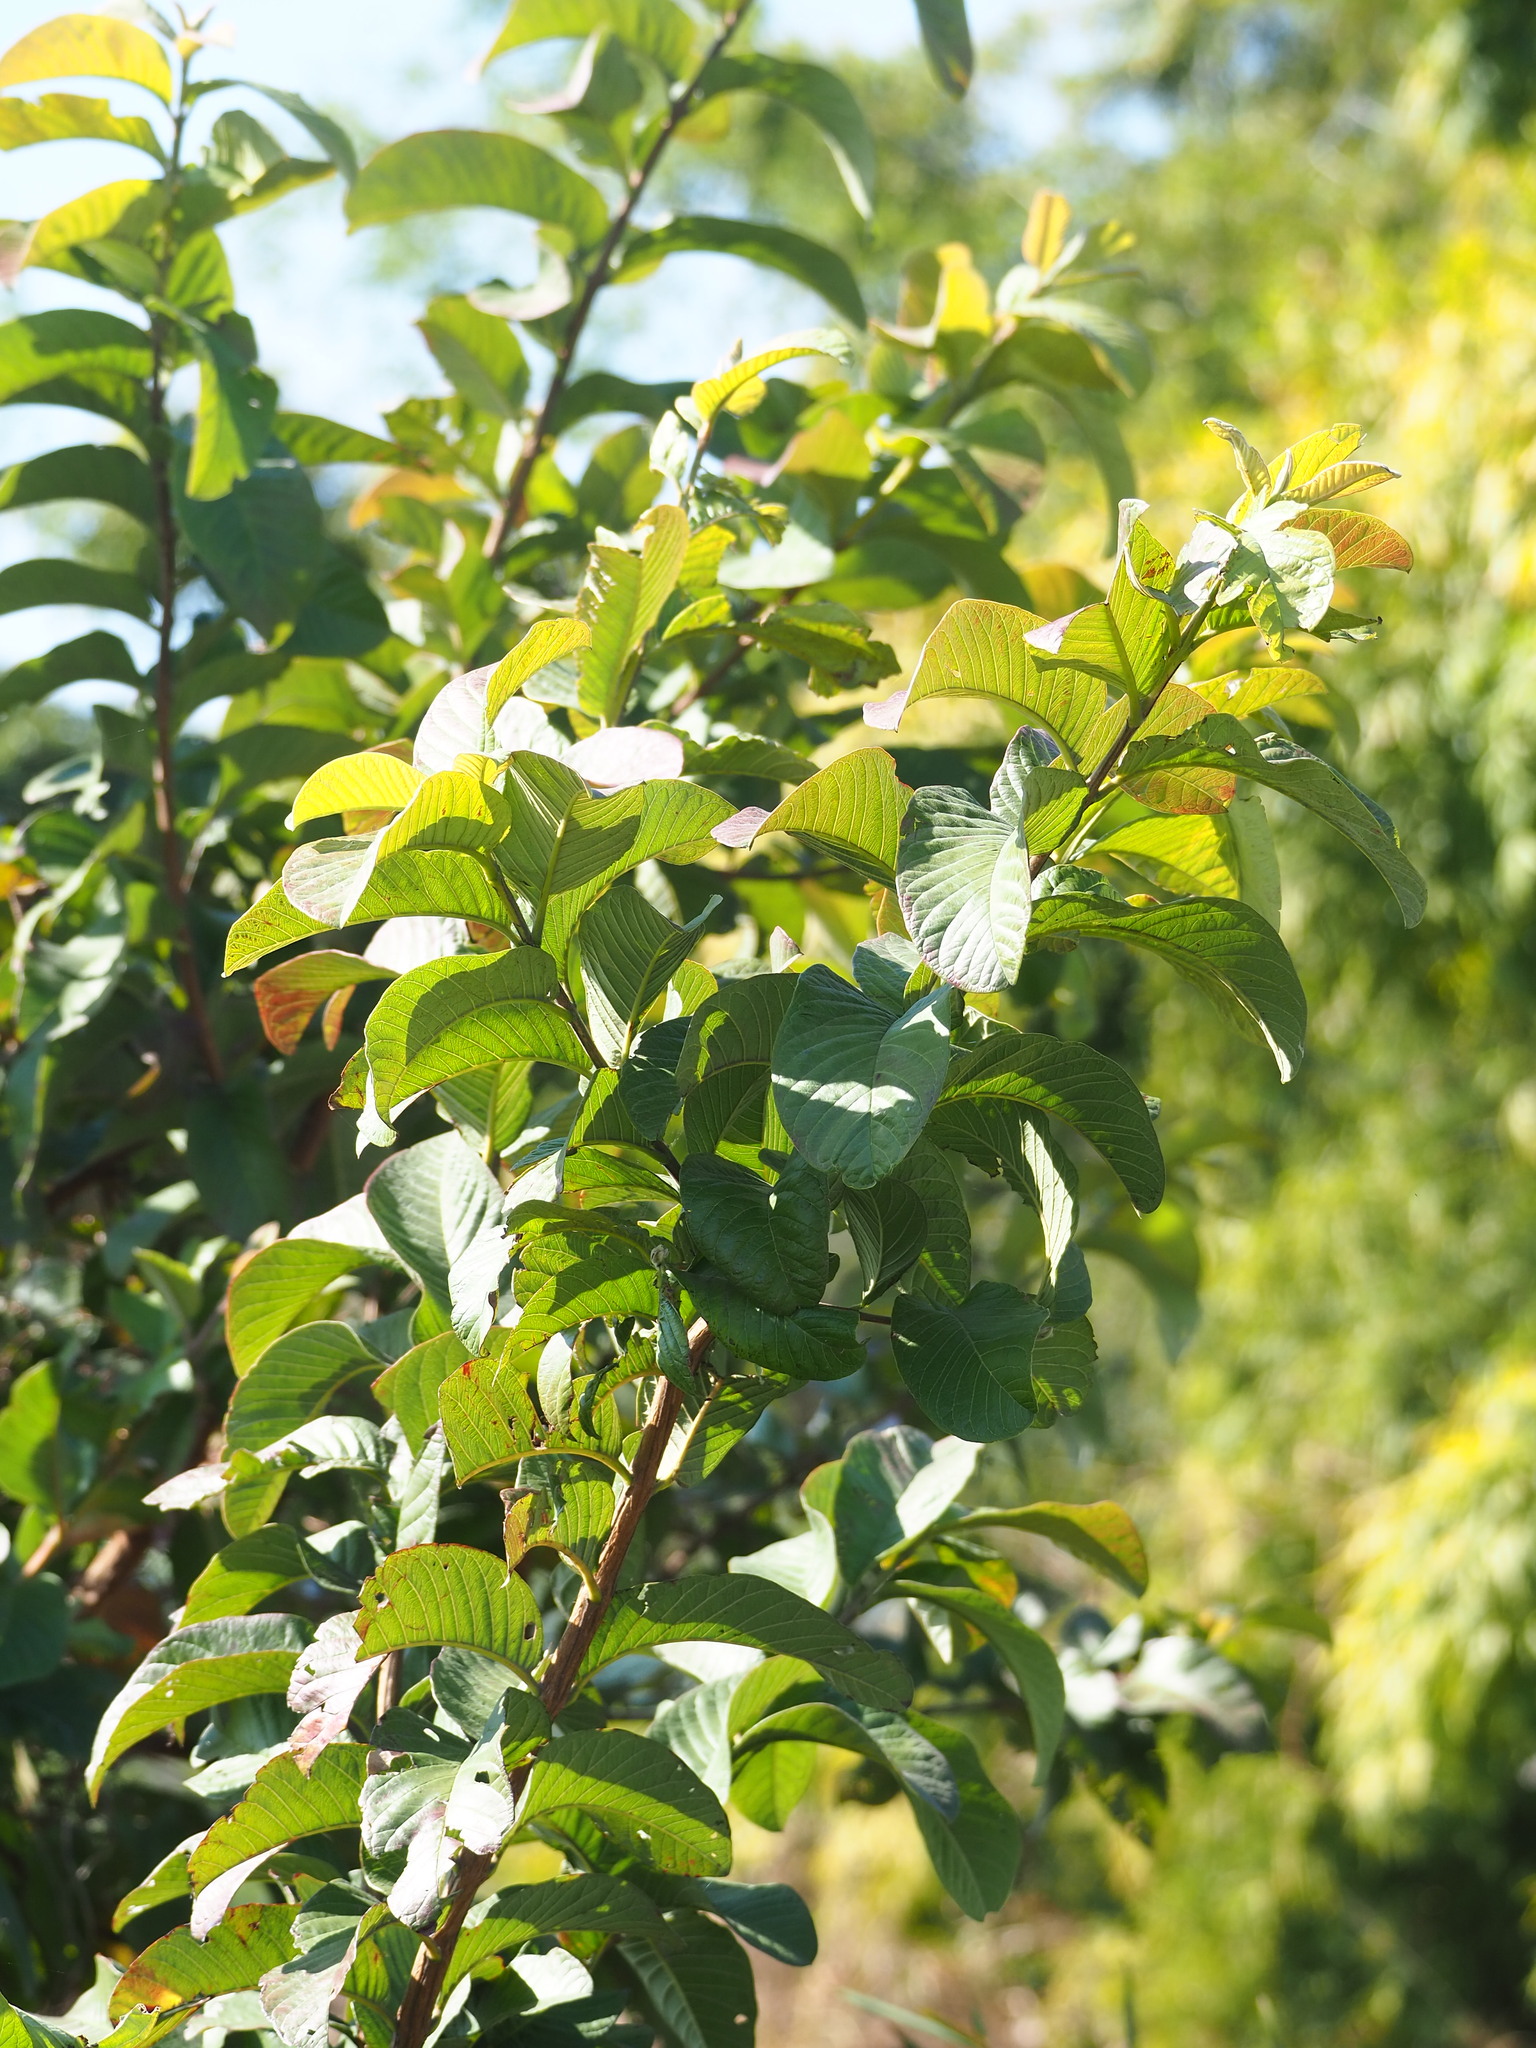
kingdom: Plantae
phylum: Tracheophyta
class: Magnoliopsida
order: Myrtales
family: Myrtaceae
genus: Psidium
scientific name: Psidium guajava
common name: Guava
